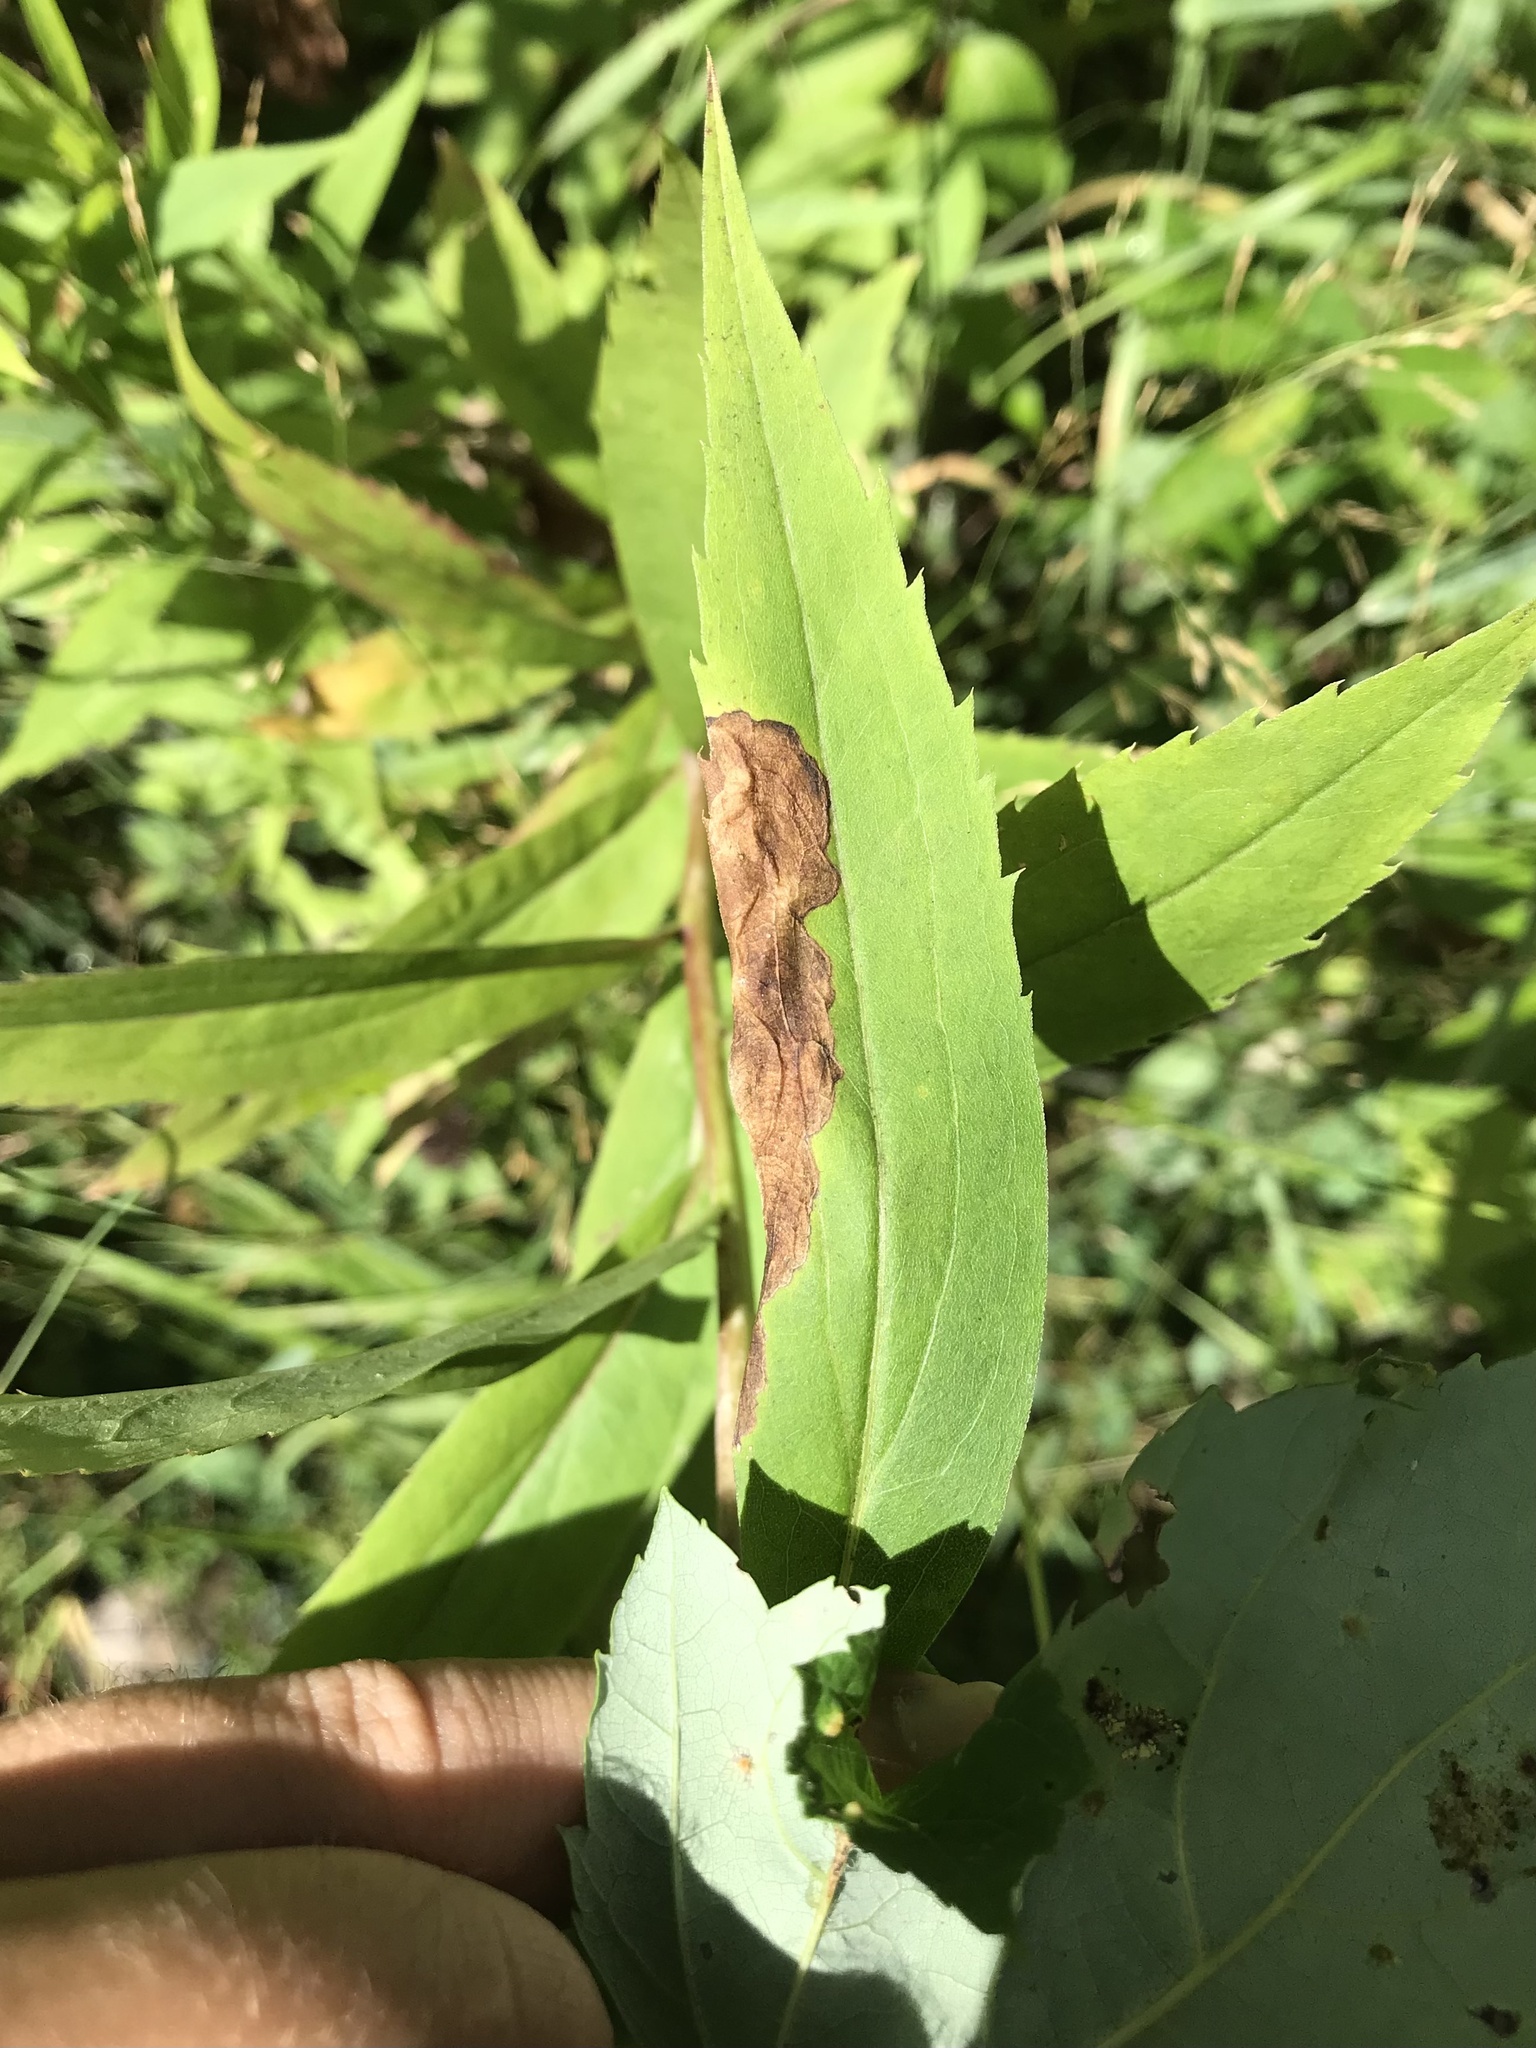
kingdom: Animalia
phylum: Arthropoda
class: Insecta
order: Diptera
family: Agromyzidae
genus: Nemorimyza
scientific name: Nemorimyza posticata
